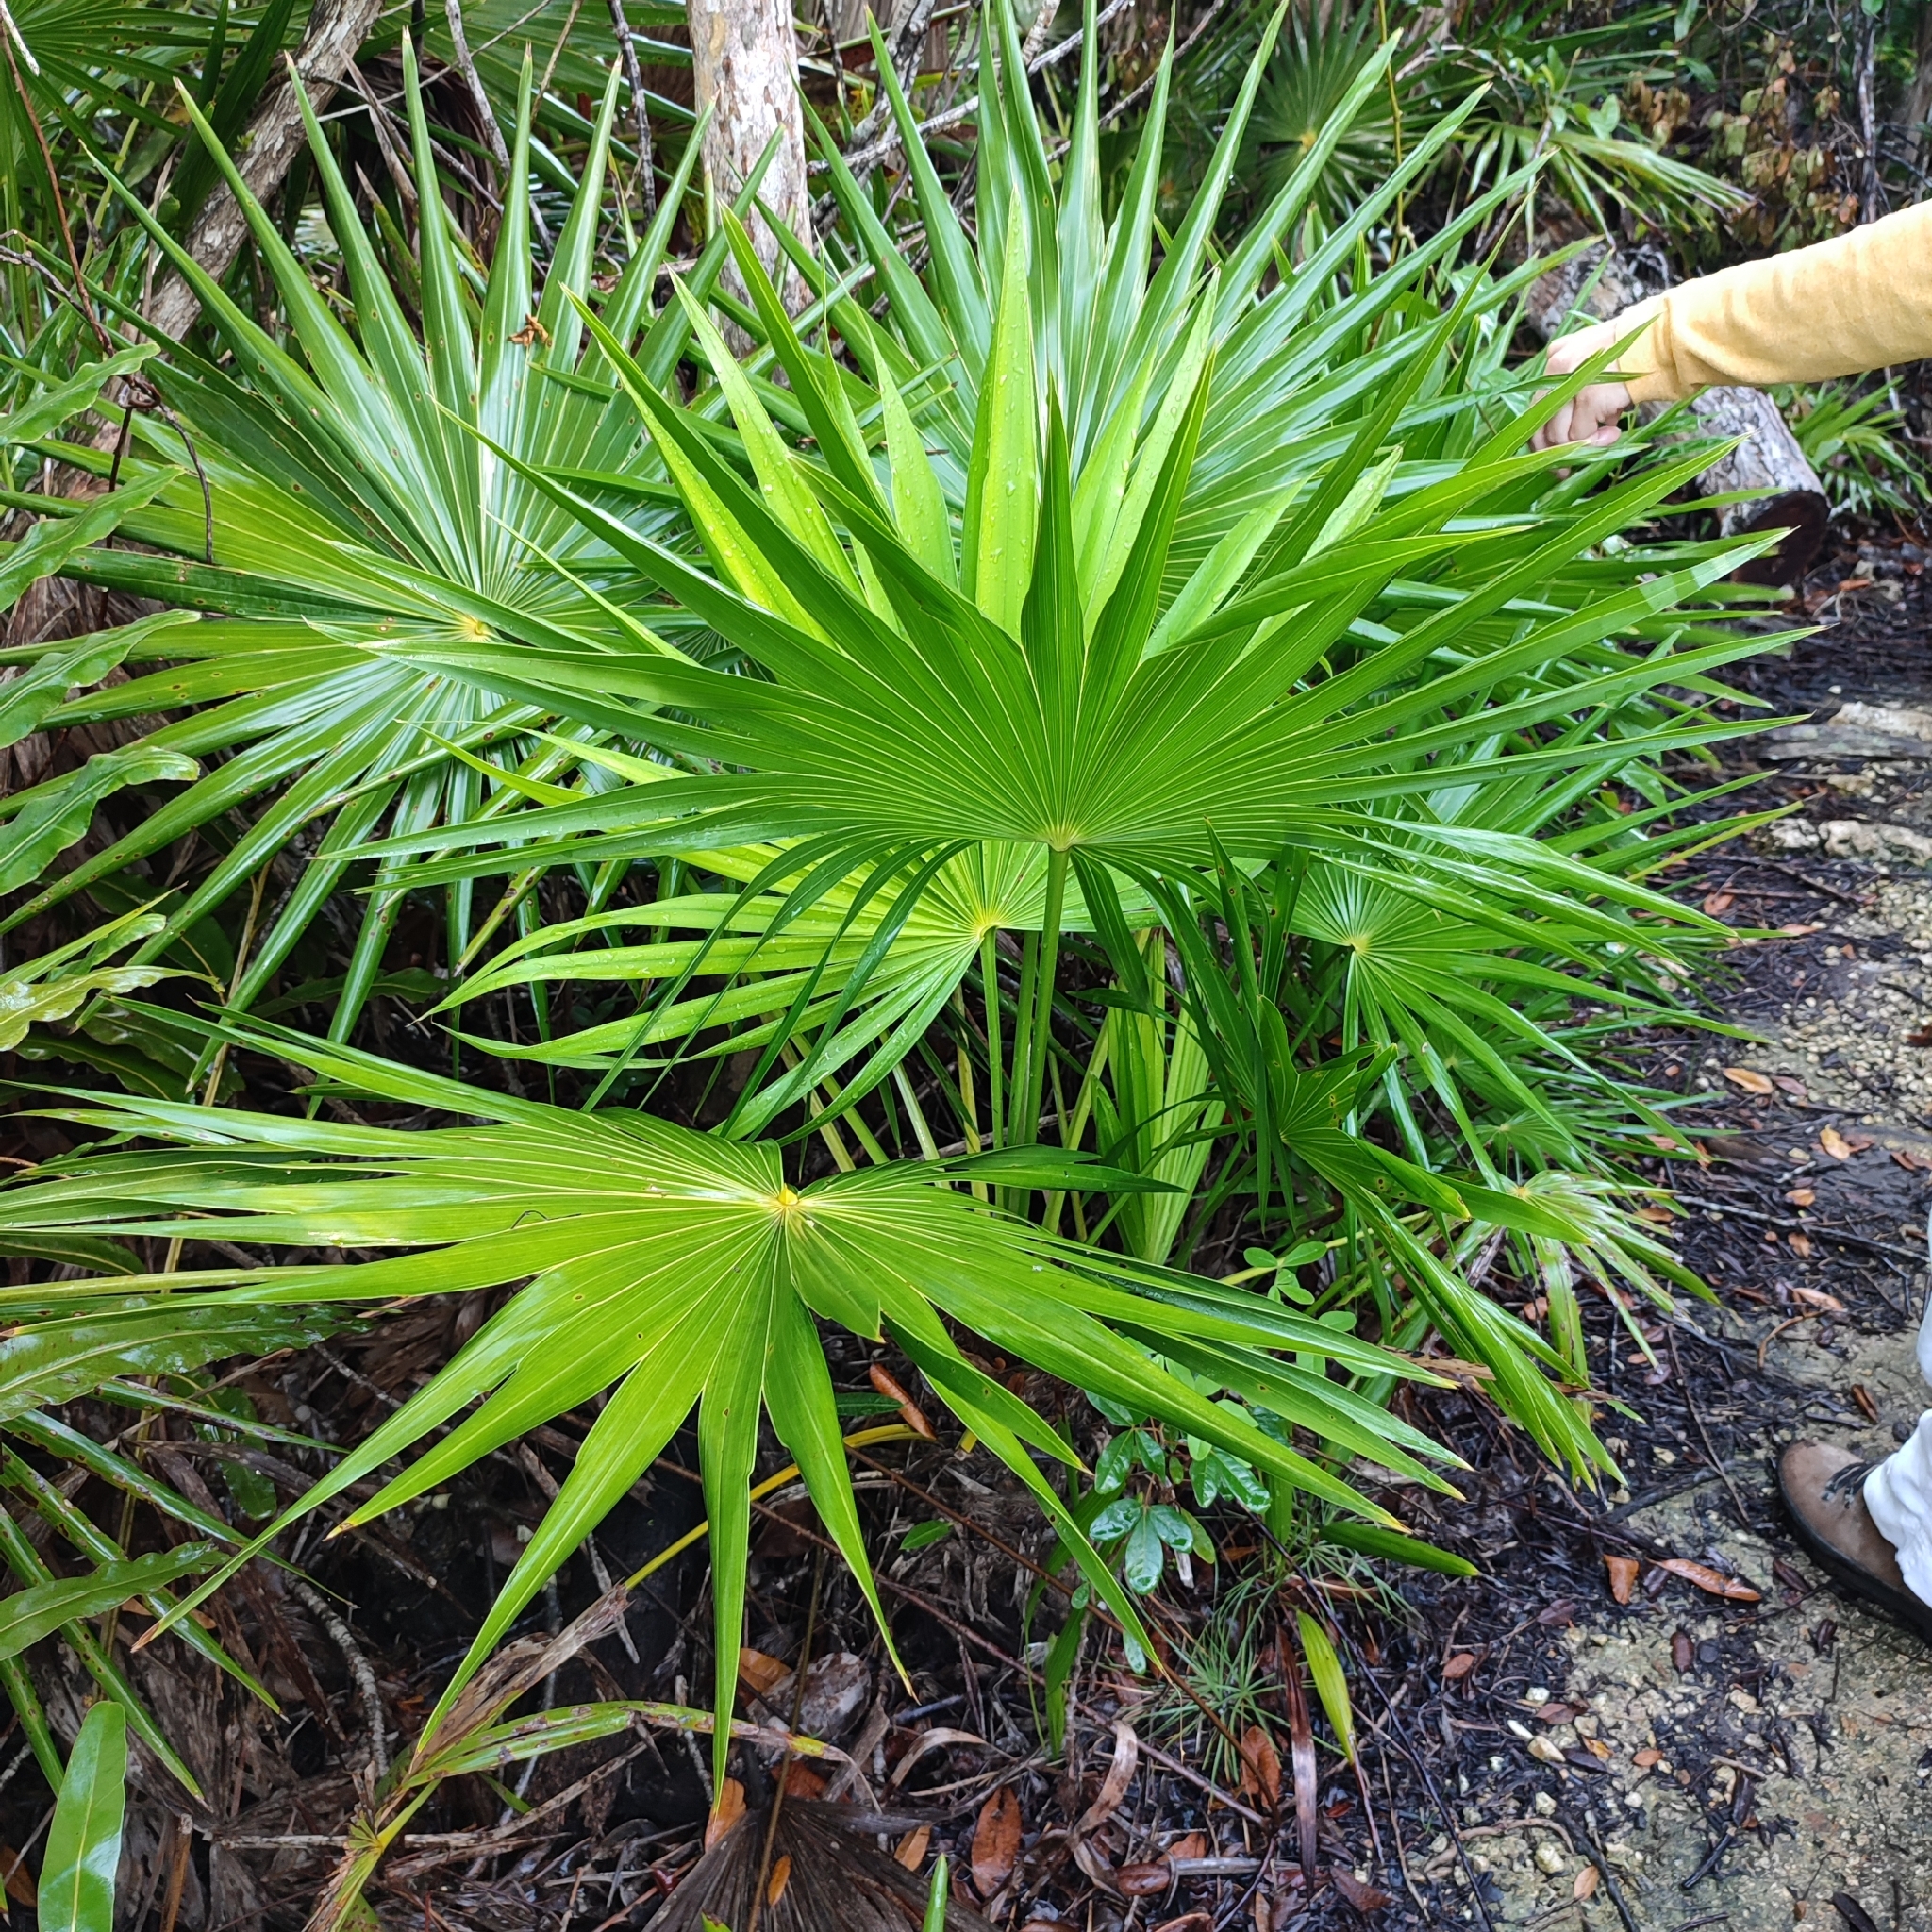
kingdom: Plantae
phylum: Tracheophyta
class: Liliopsida
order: Arecales
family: Arecaceae
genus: Thrinax
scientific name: Thrinax radiata
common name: Florida thatch
